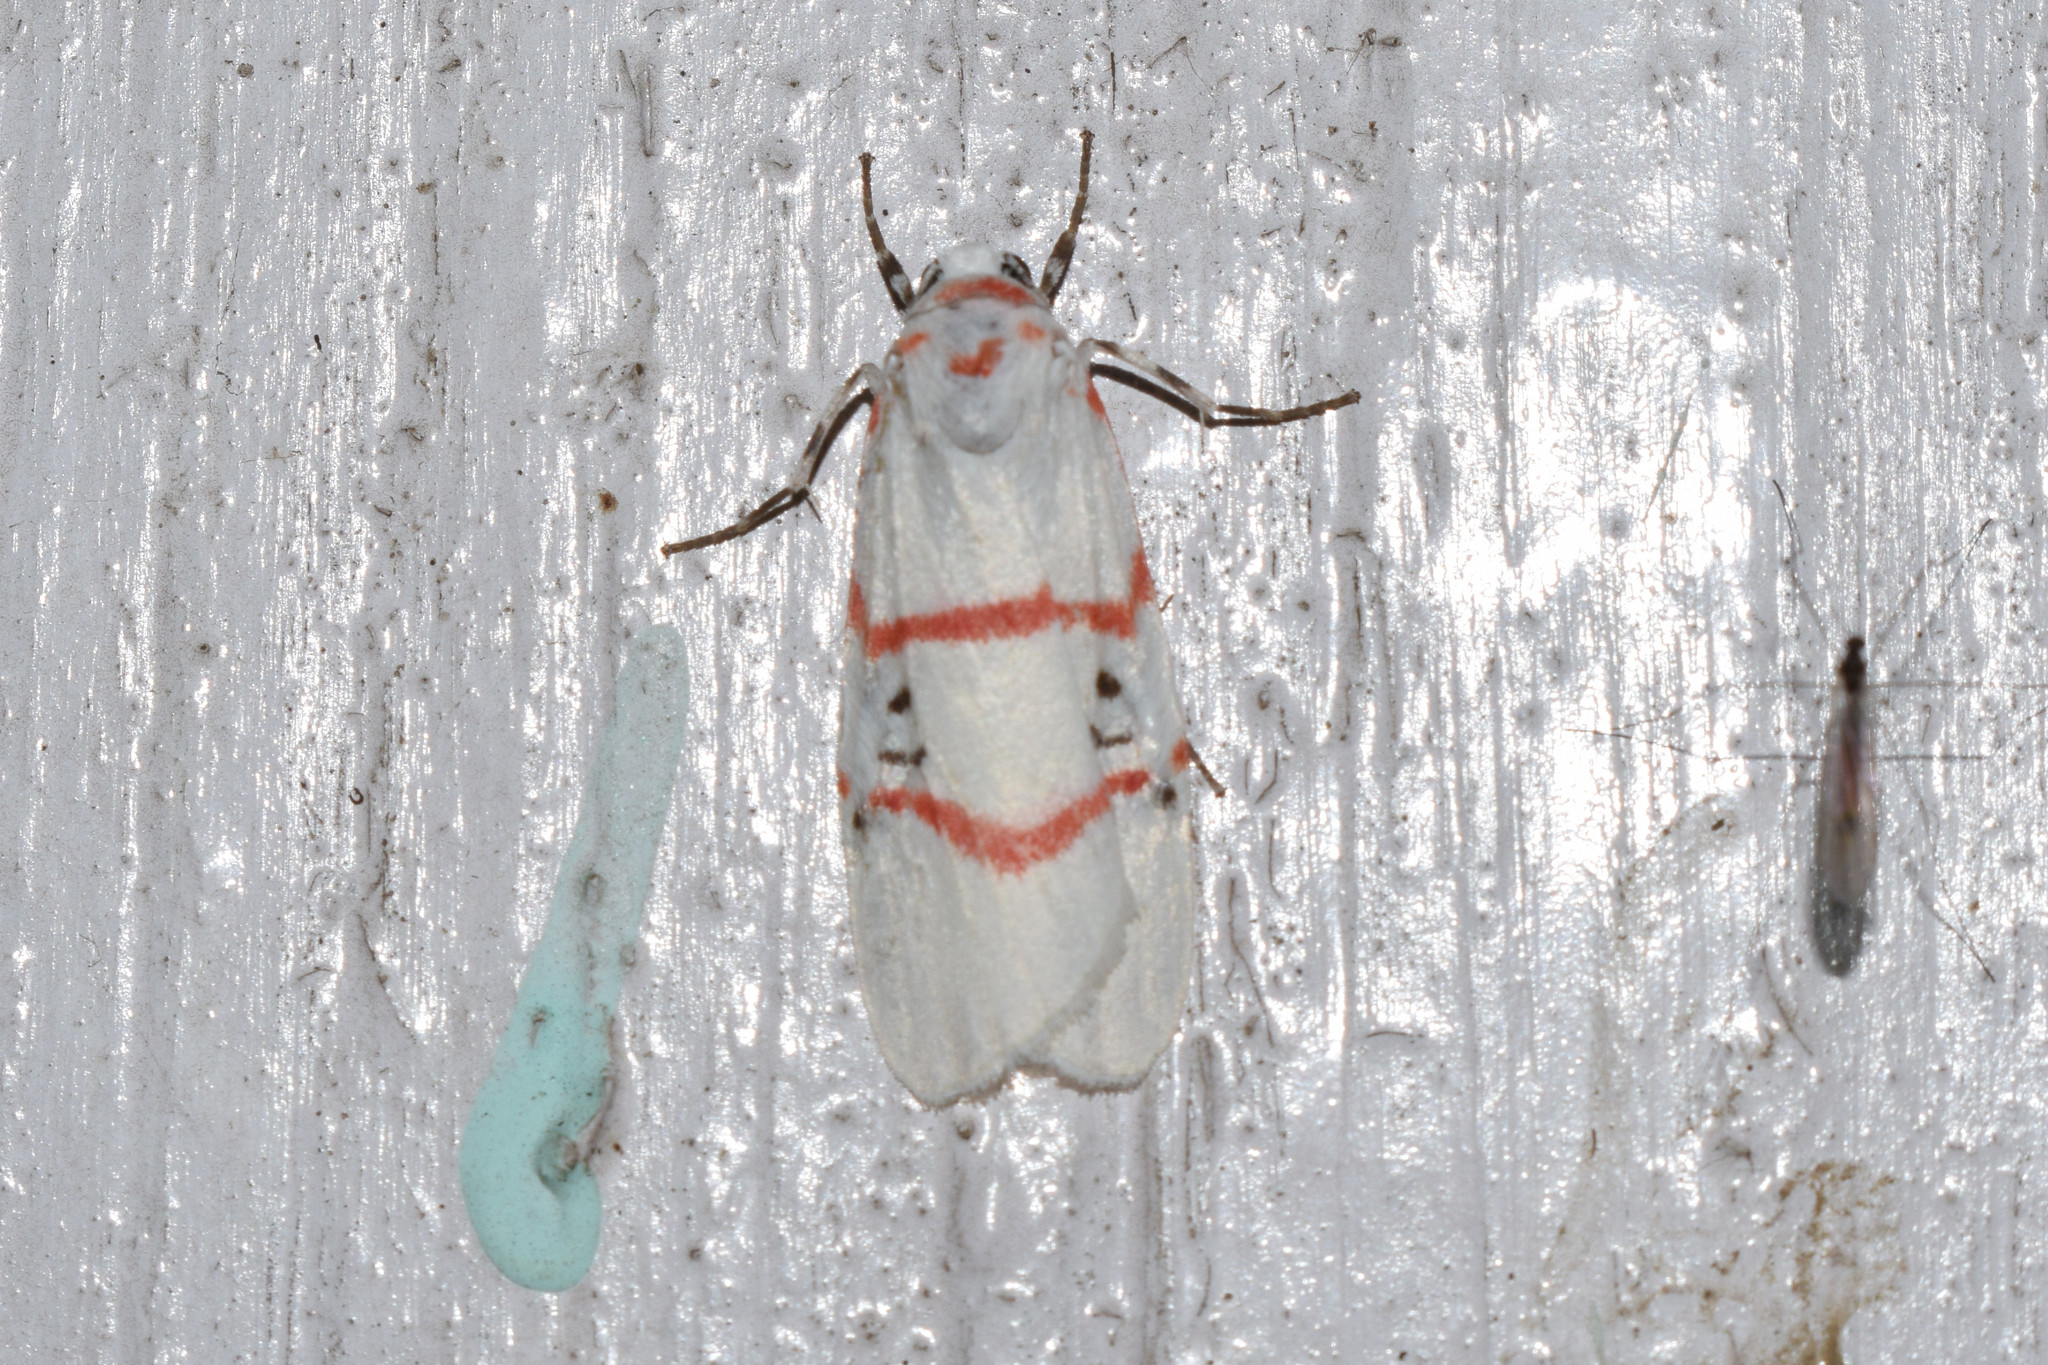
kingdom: Animalia
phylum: Arthropoda
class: Insecta
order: Lepidoptera
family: Erebidae
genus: Cyana
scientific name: Cyana signa
